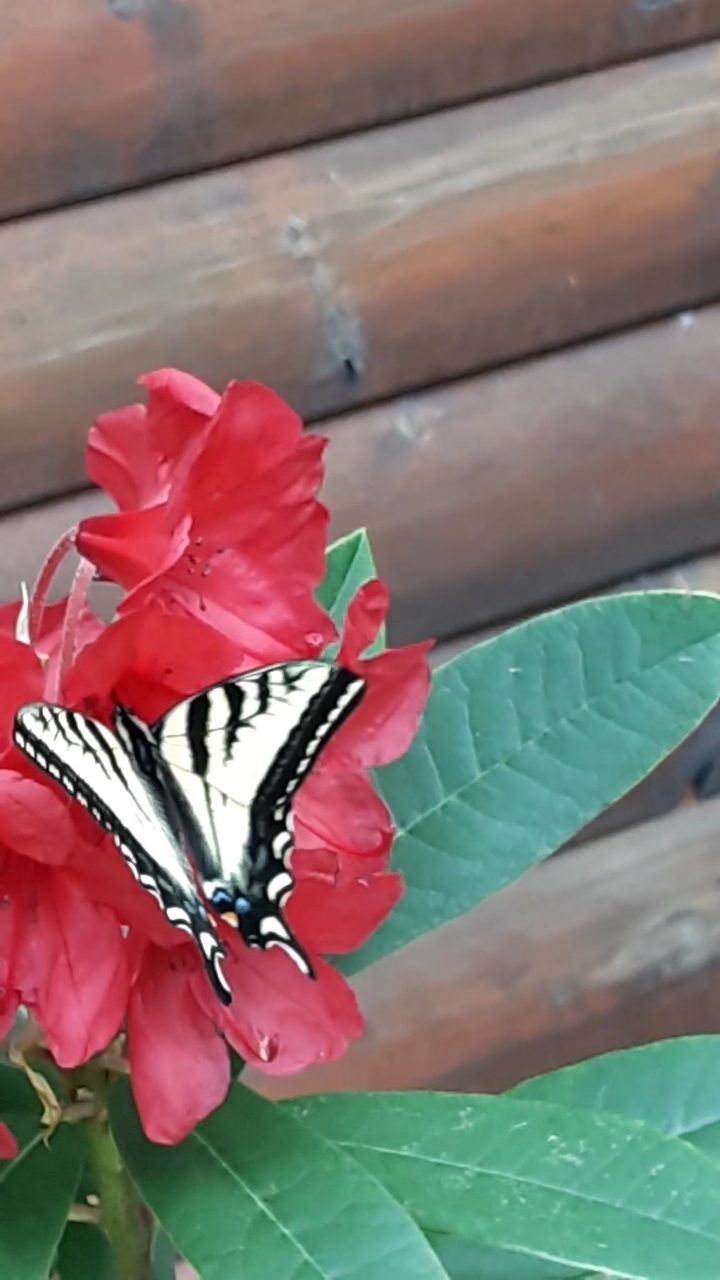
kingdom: Animalia
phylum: Arthropoda
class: Insecta
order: Lepidoptera
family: Papilionidae
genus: Papilio
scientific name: Papilio rutulus
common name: Western tiger swallowtail
